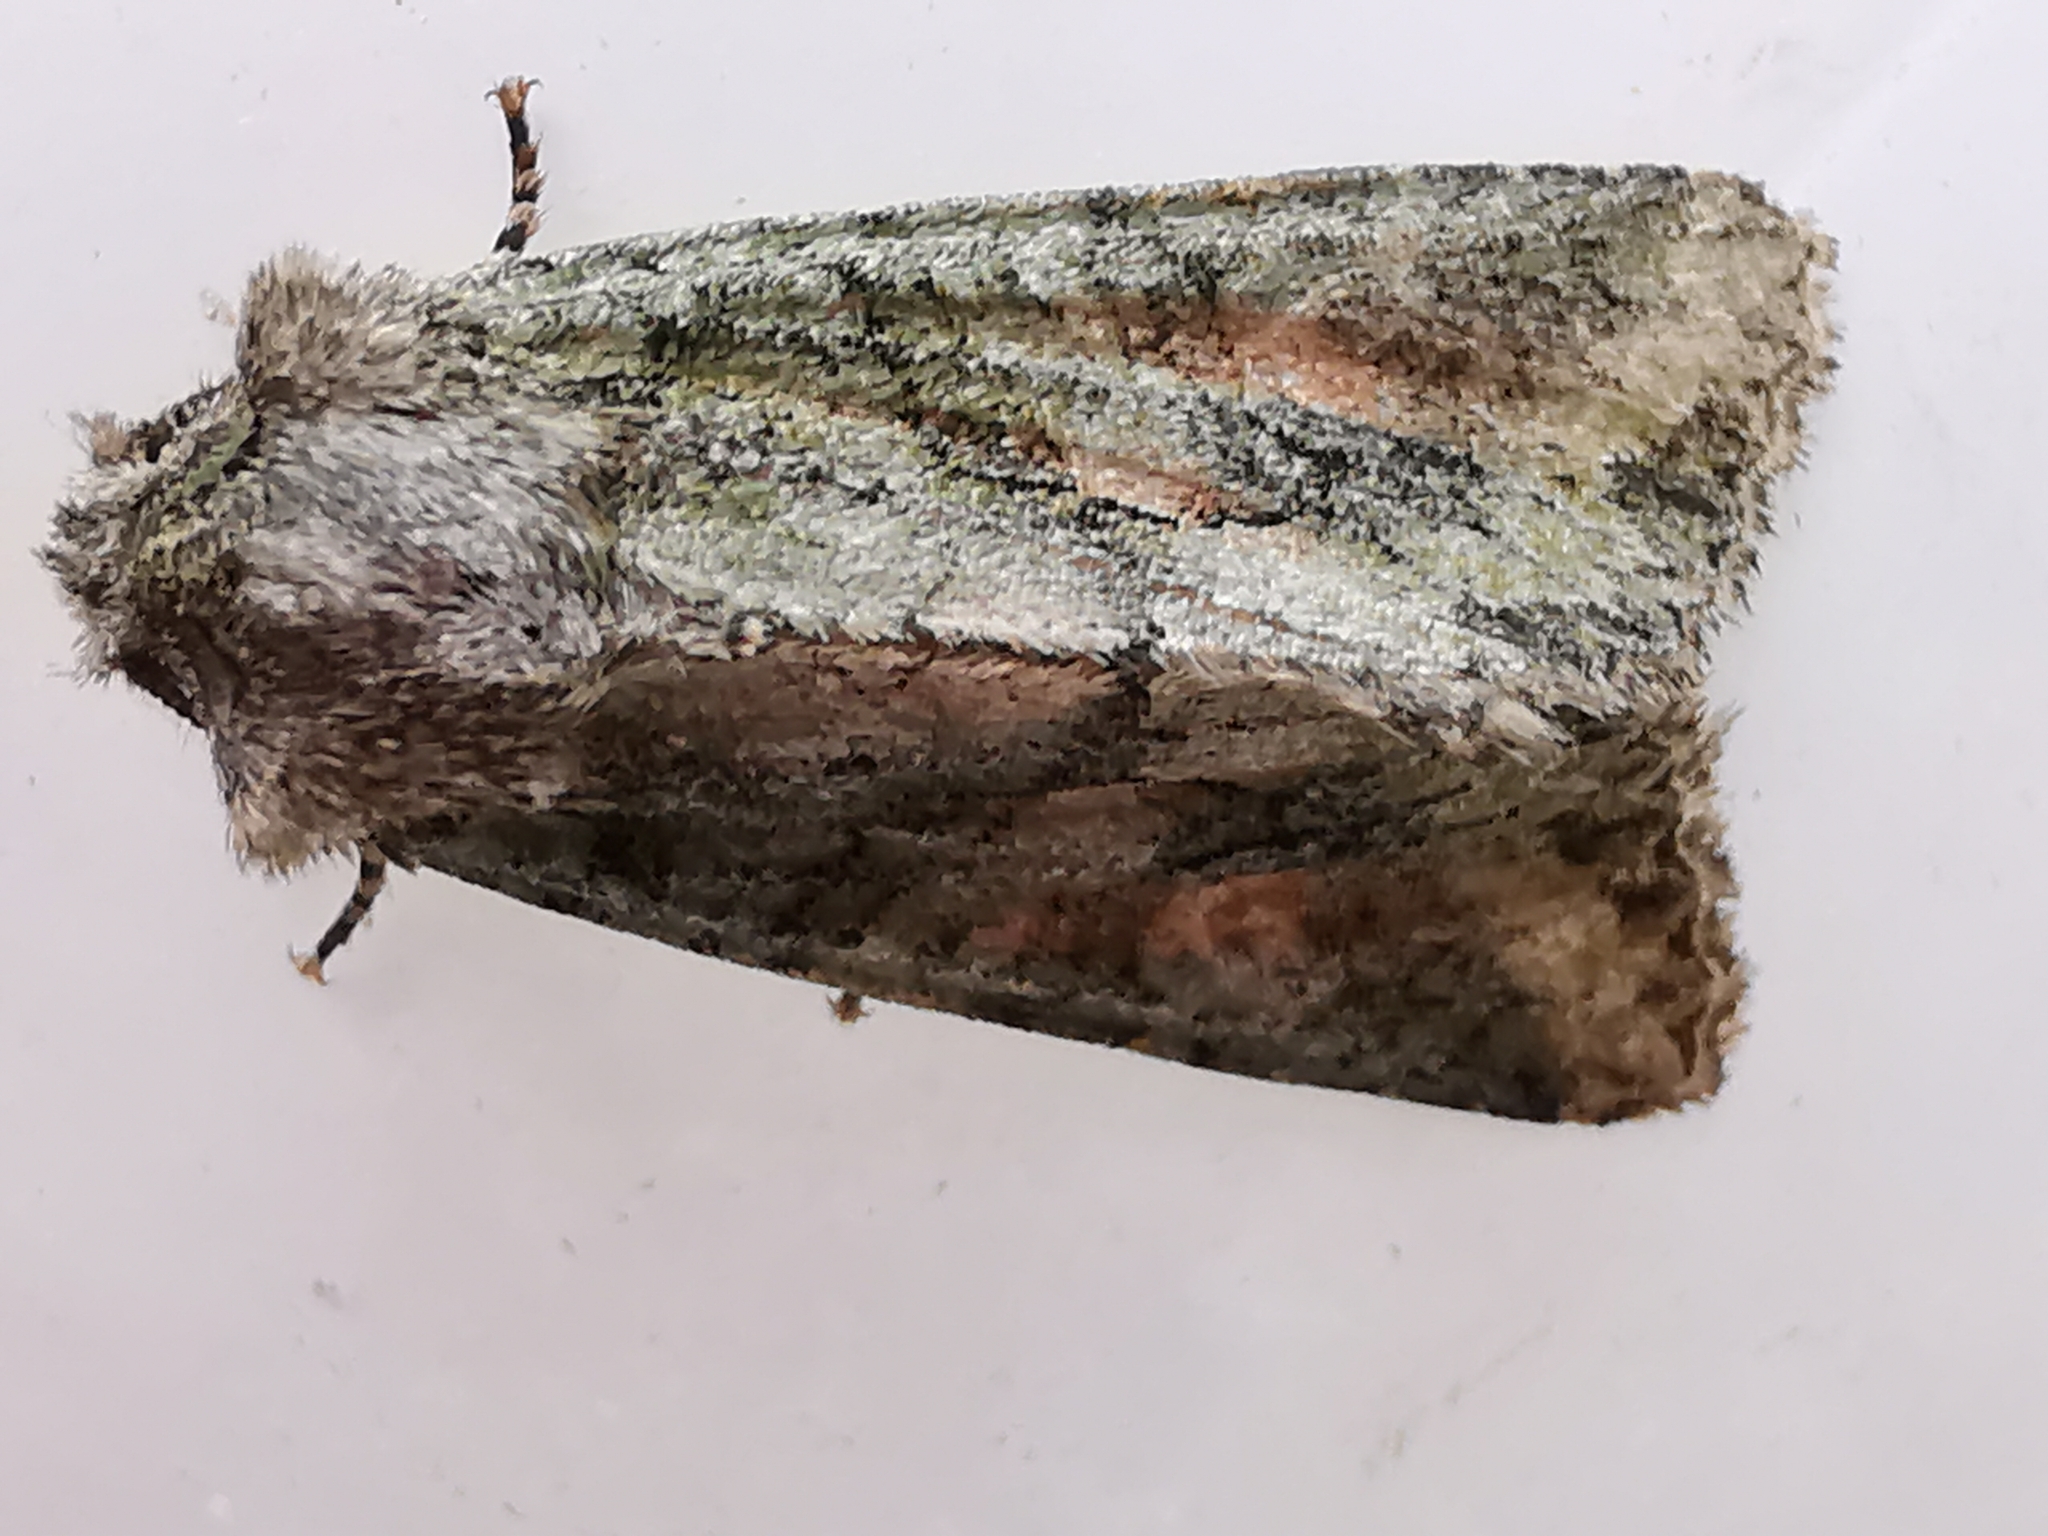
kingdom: Animalia
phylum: Arthropoda
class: Insecta
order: Lepidoptera
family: Noctuidae
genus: Dryobotodes
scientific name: Dryobotodes eremita
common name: Brindled green
